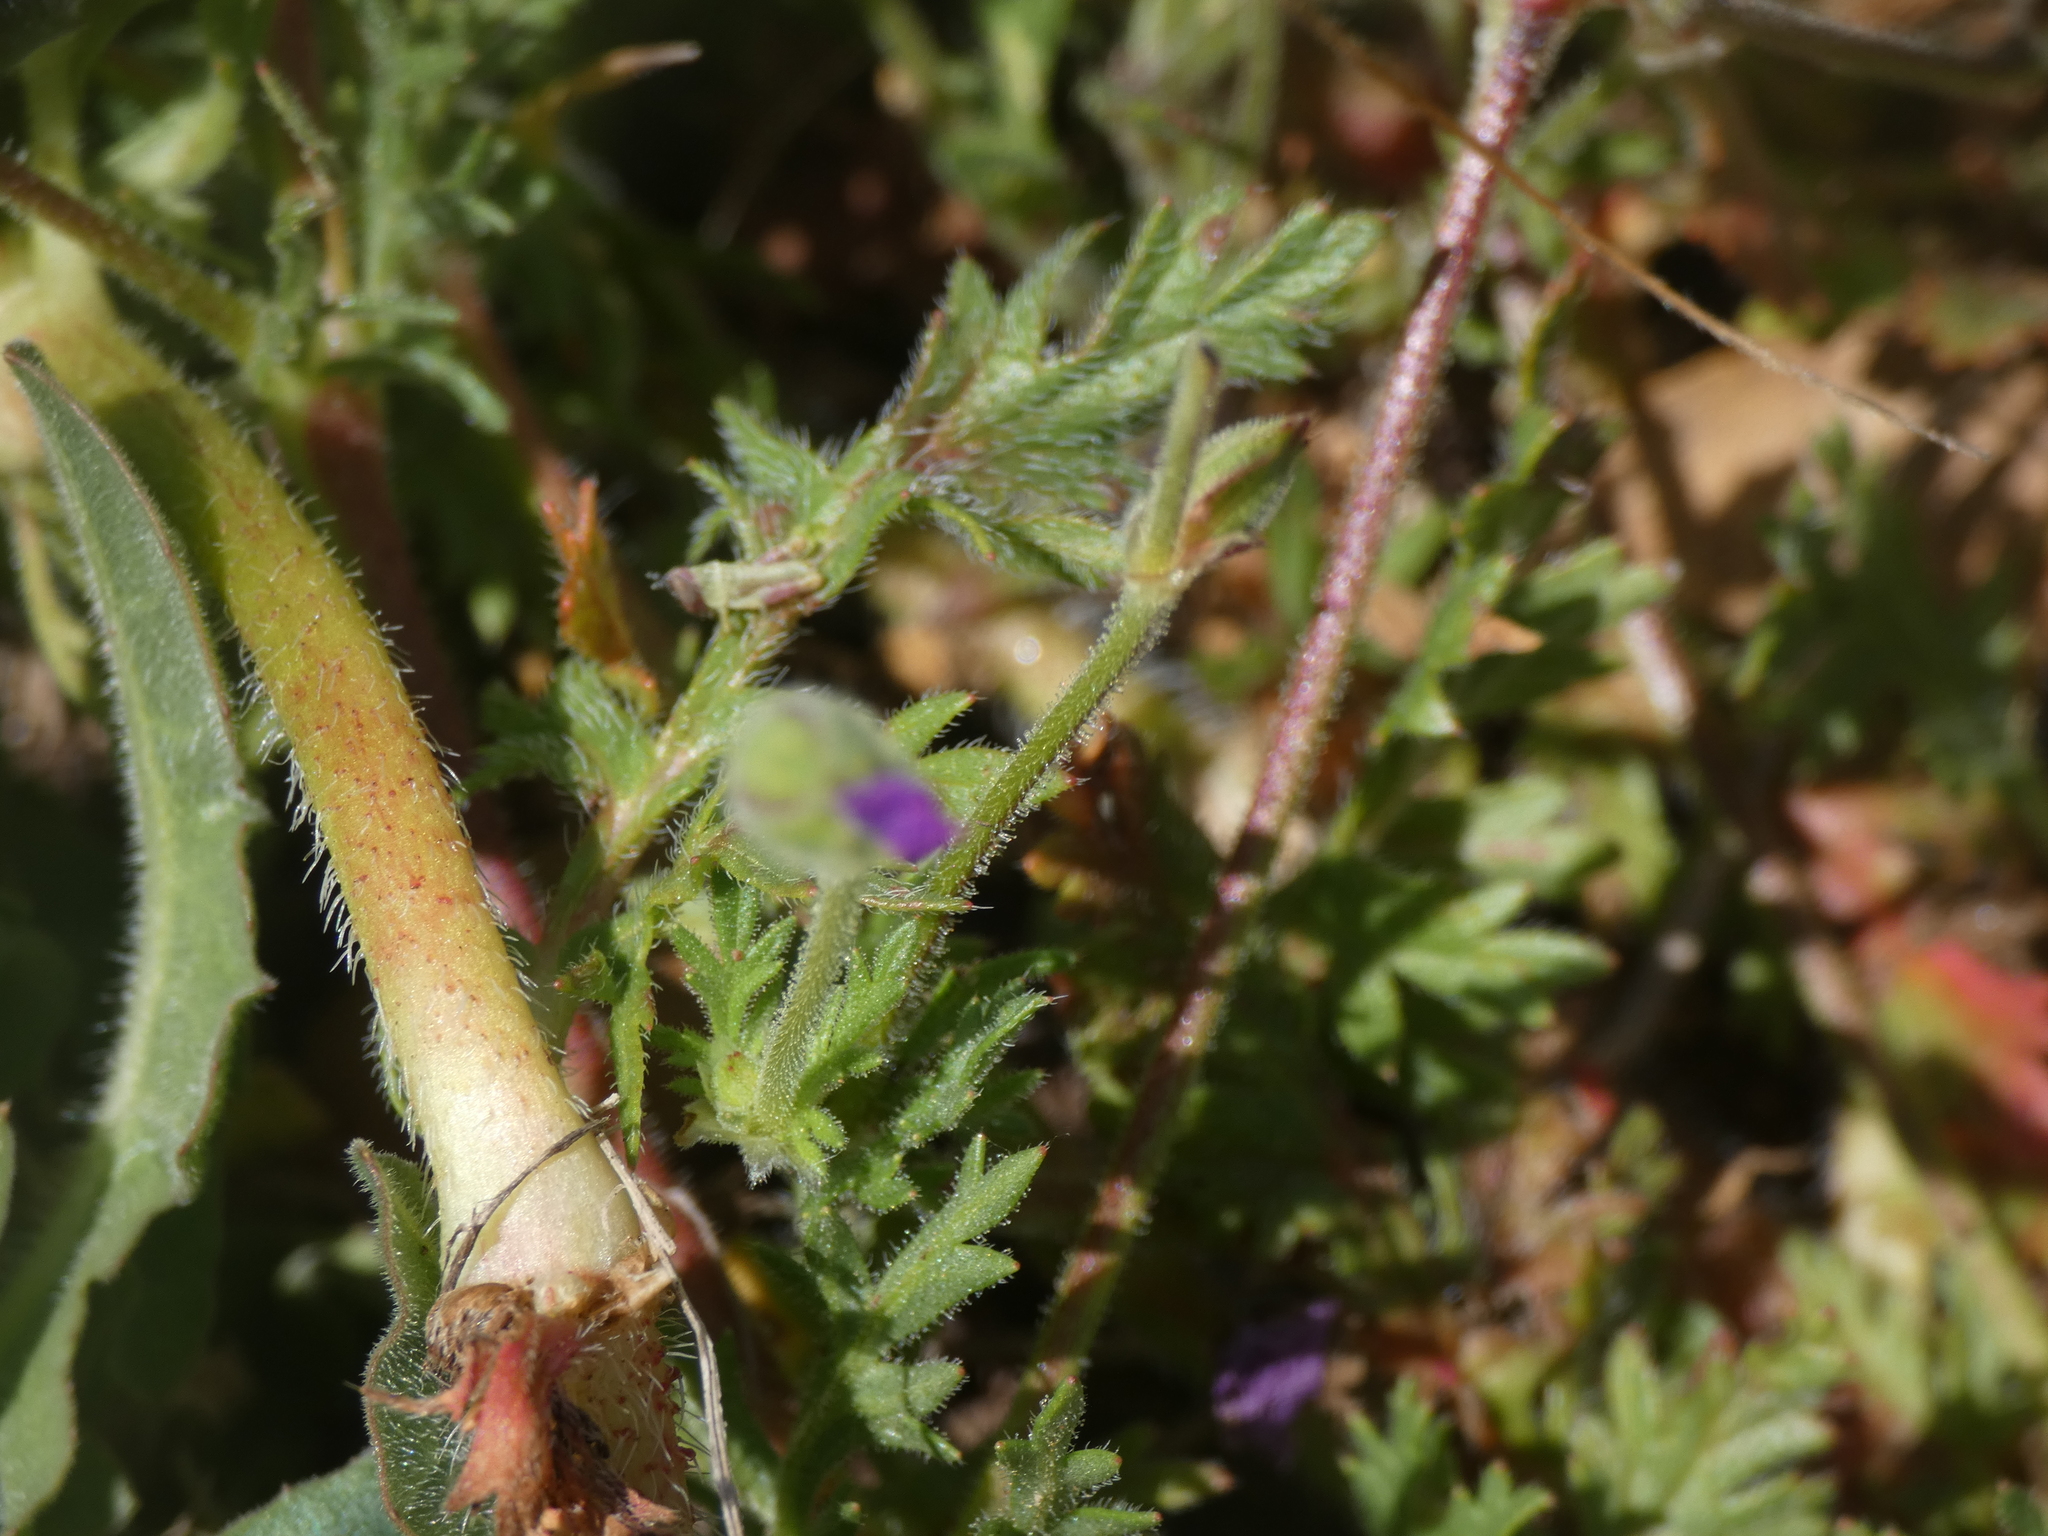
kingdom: Plantae
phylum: Tracheophyta
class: Magnoliopsida
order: Geraniales
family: Geraniaceae
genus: Erodium
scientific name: Erodium botrys
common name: Mediterranean stork's-bill
